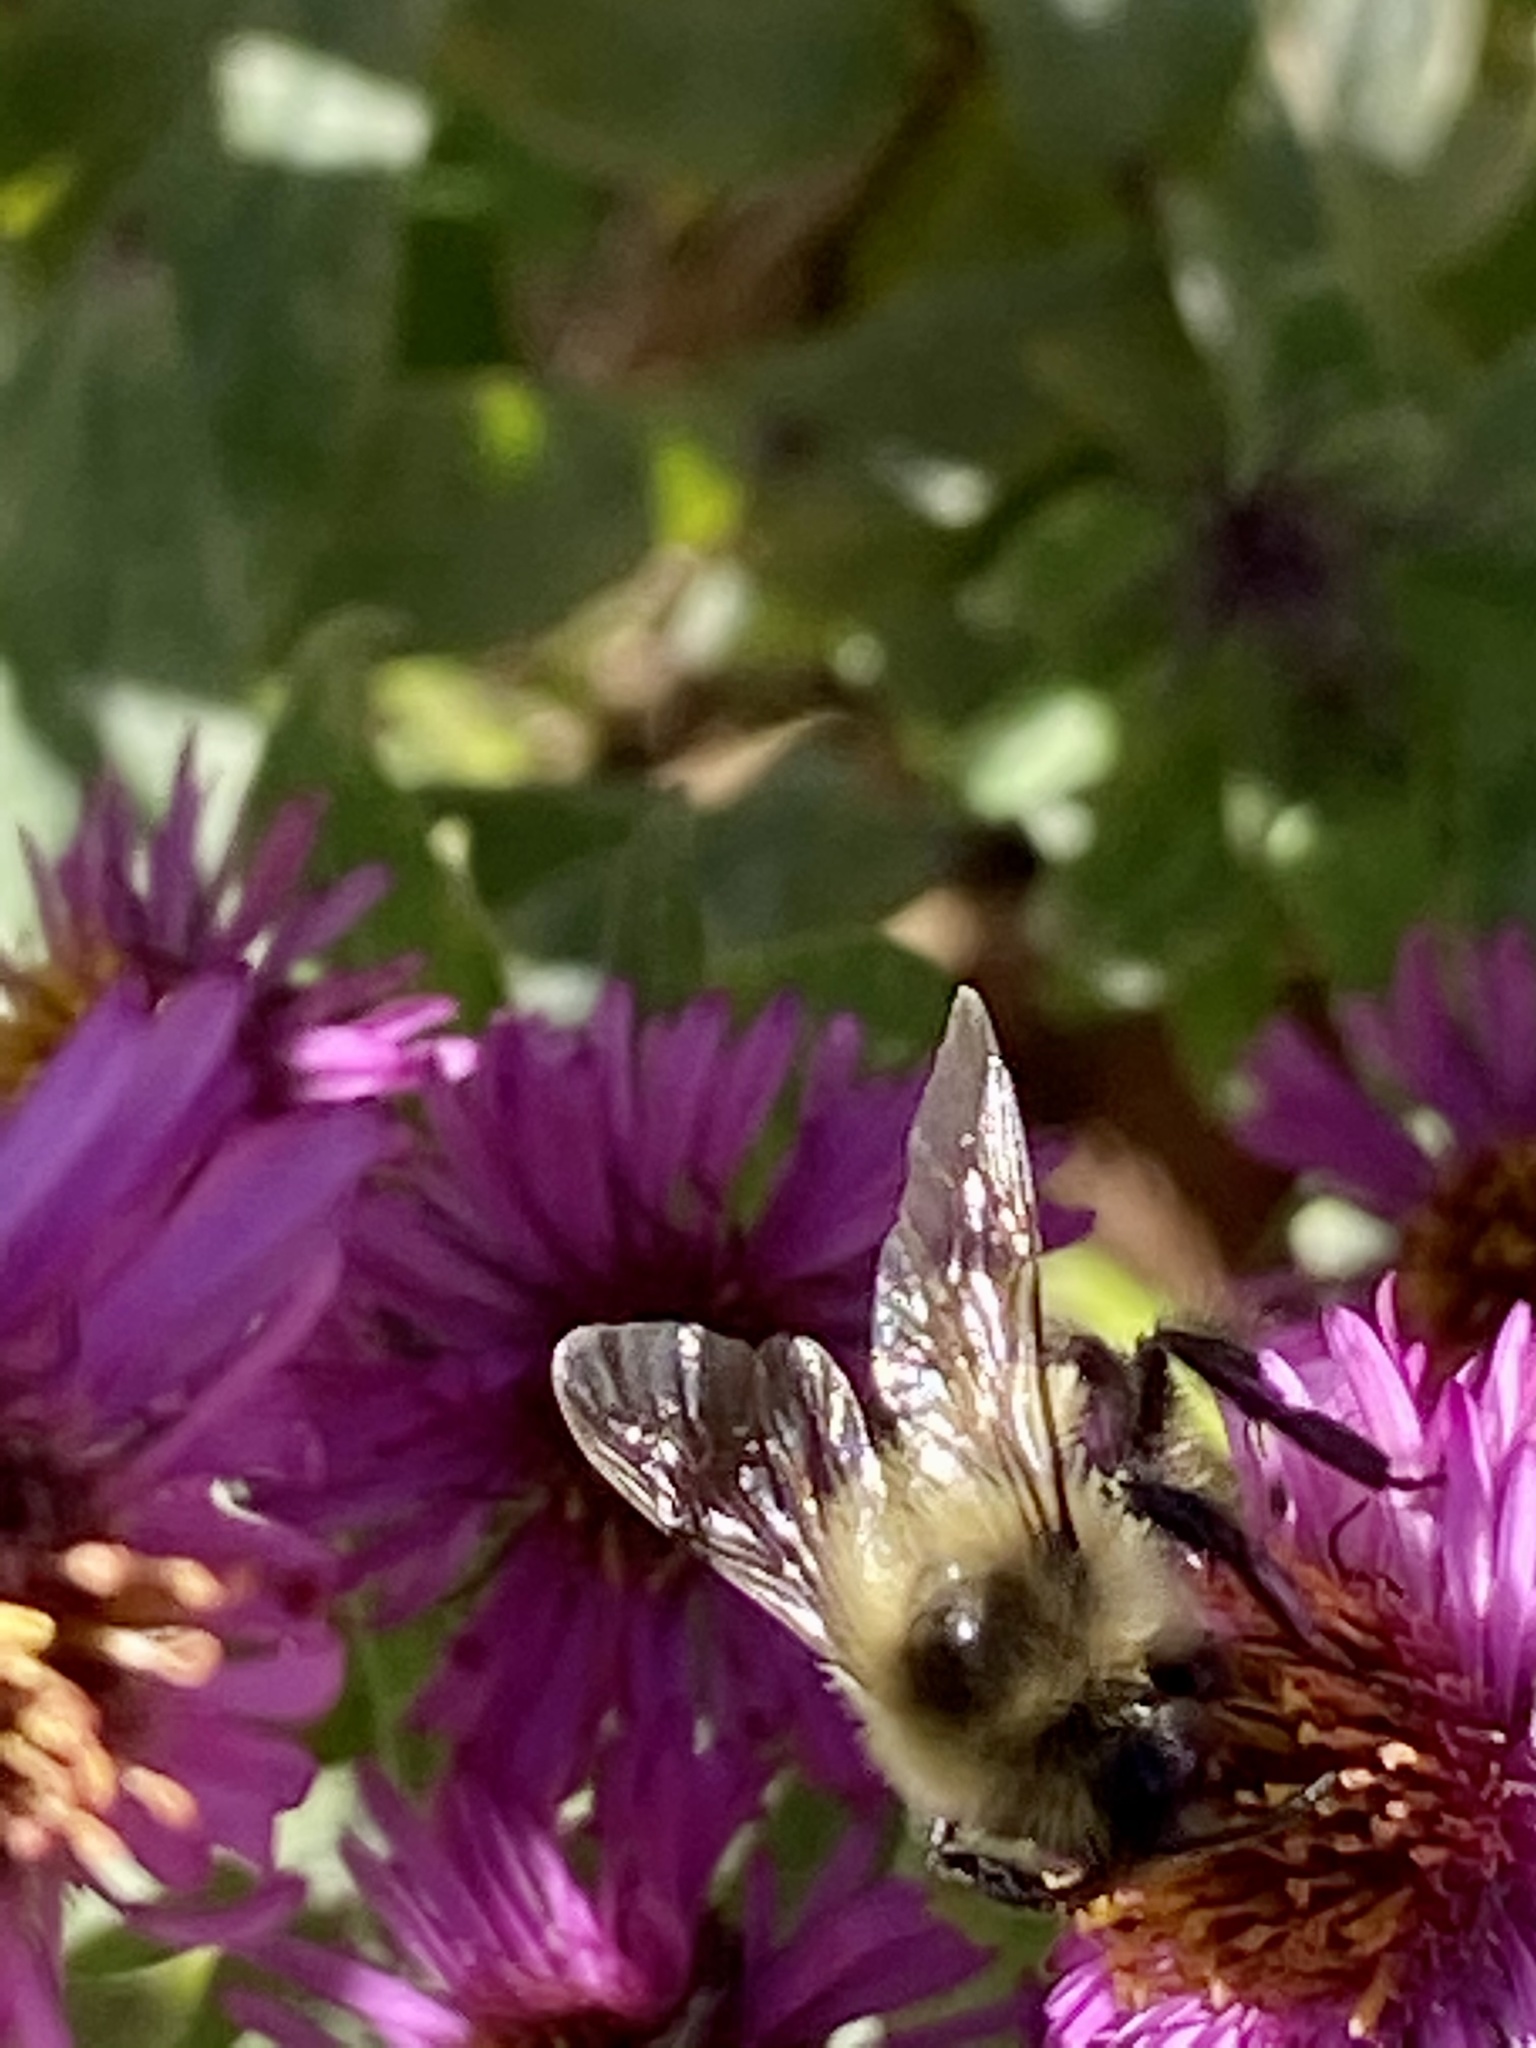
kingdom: Animalia
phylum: Arthropoda
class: Insecta
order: Hymenoptera
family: Apidae
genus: Bombus
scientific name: Bombus impatiens
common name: Common eastern bumble bee
